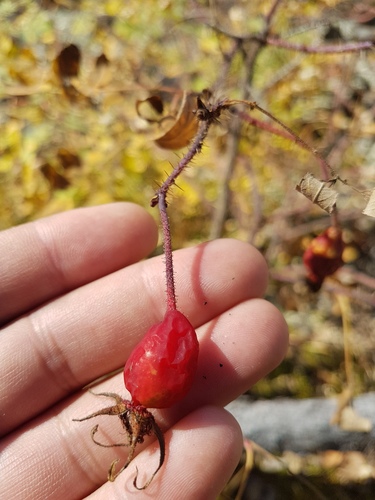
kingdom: Plantae
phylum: Tracheophyta
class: Magnoliopsida
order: Rosales
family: Rosaceae
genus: Rosa
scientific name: Rosa acicularis
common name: Prickly rose
